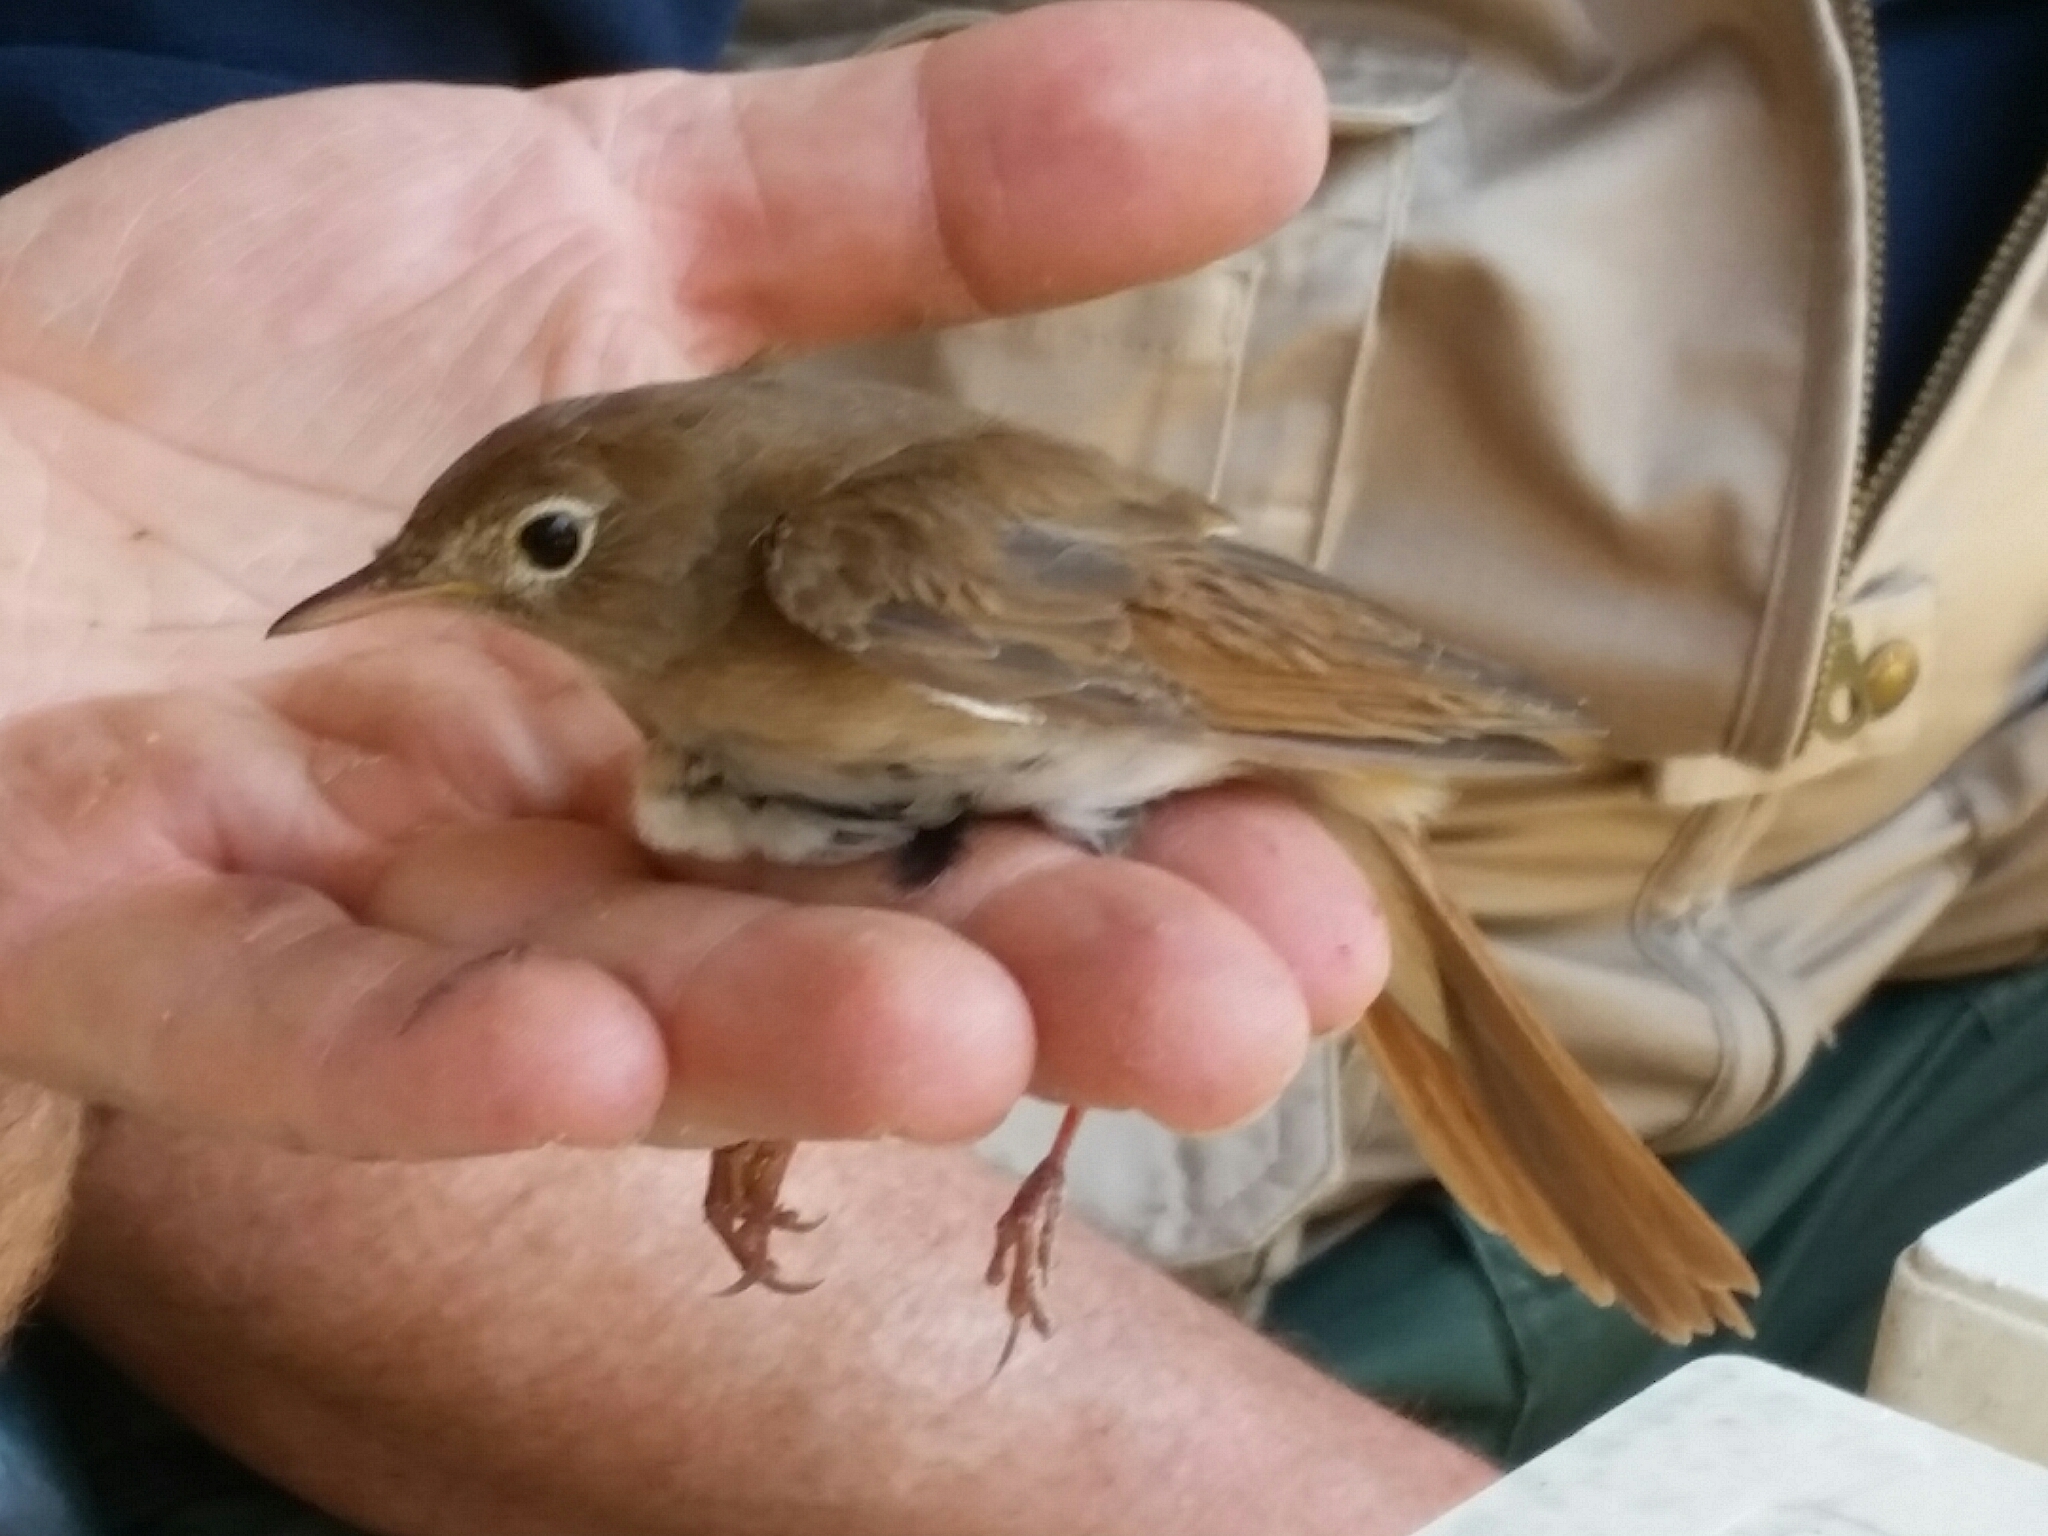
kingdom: Animalia
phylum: Chordata
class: Aves
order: Passeriformes
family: Muscicapidae
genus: Luscinia
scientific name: Luscinia megarhynchos
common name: Common nightingale
